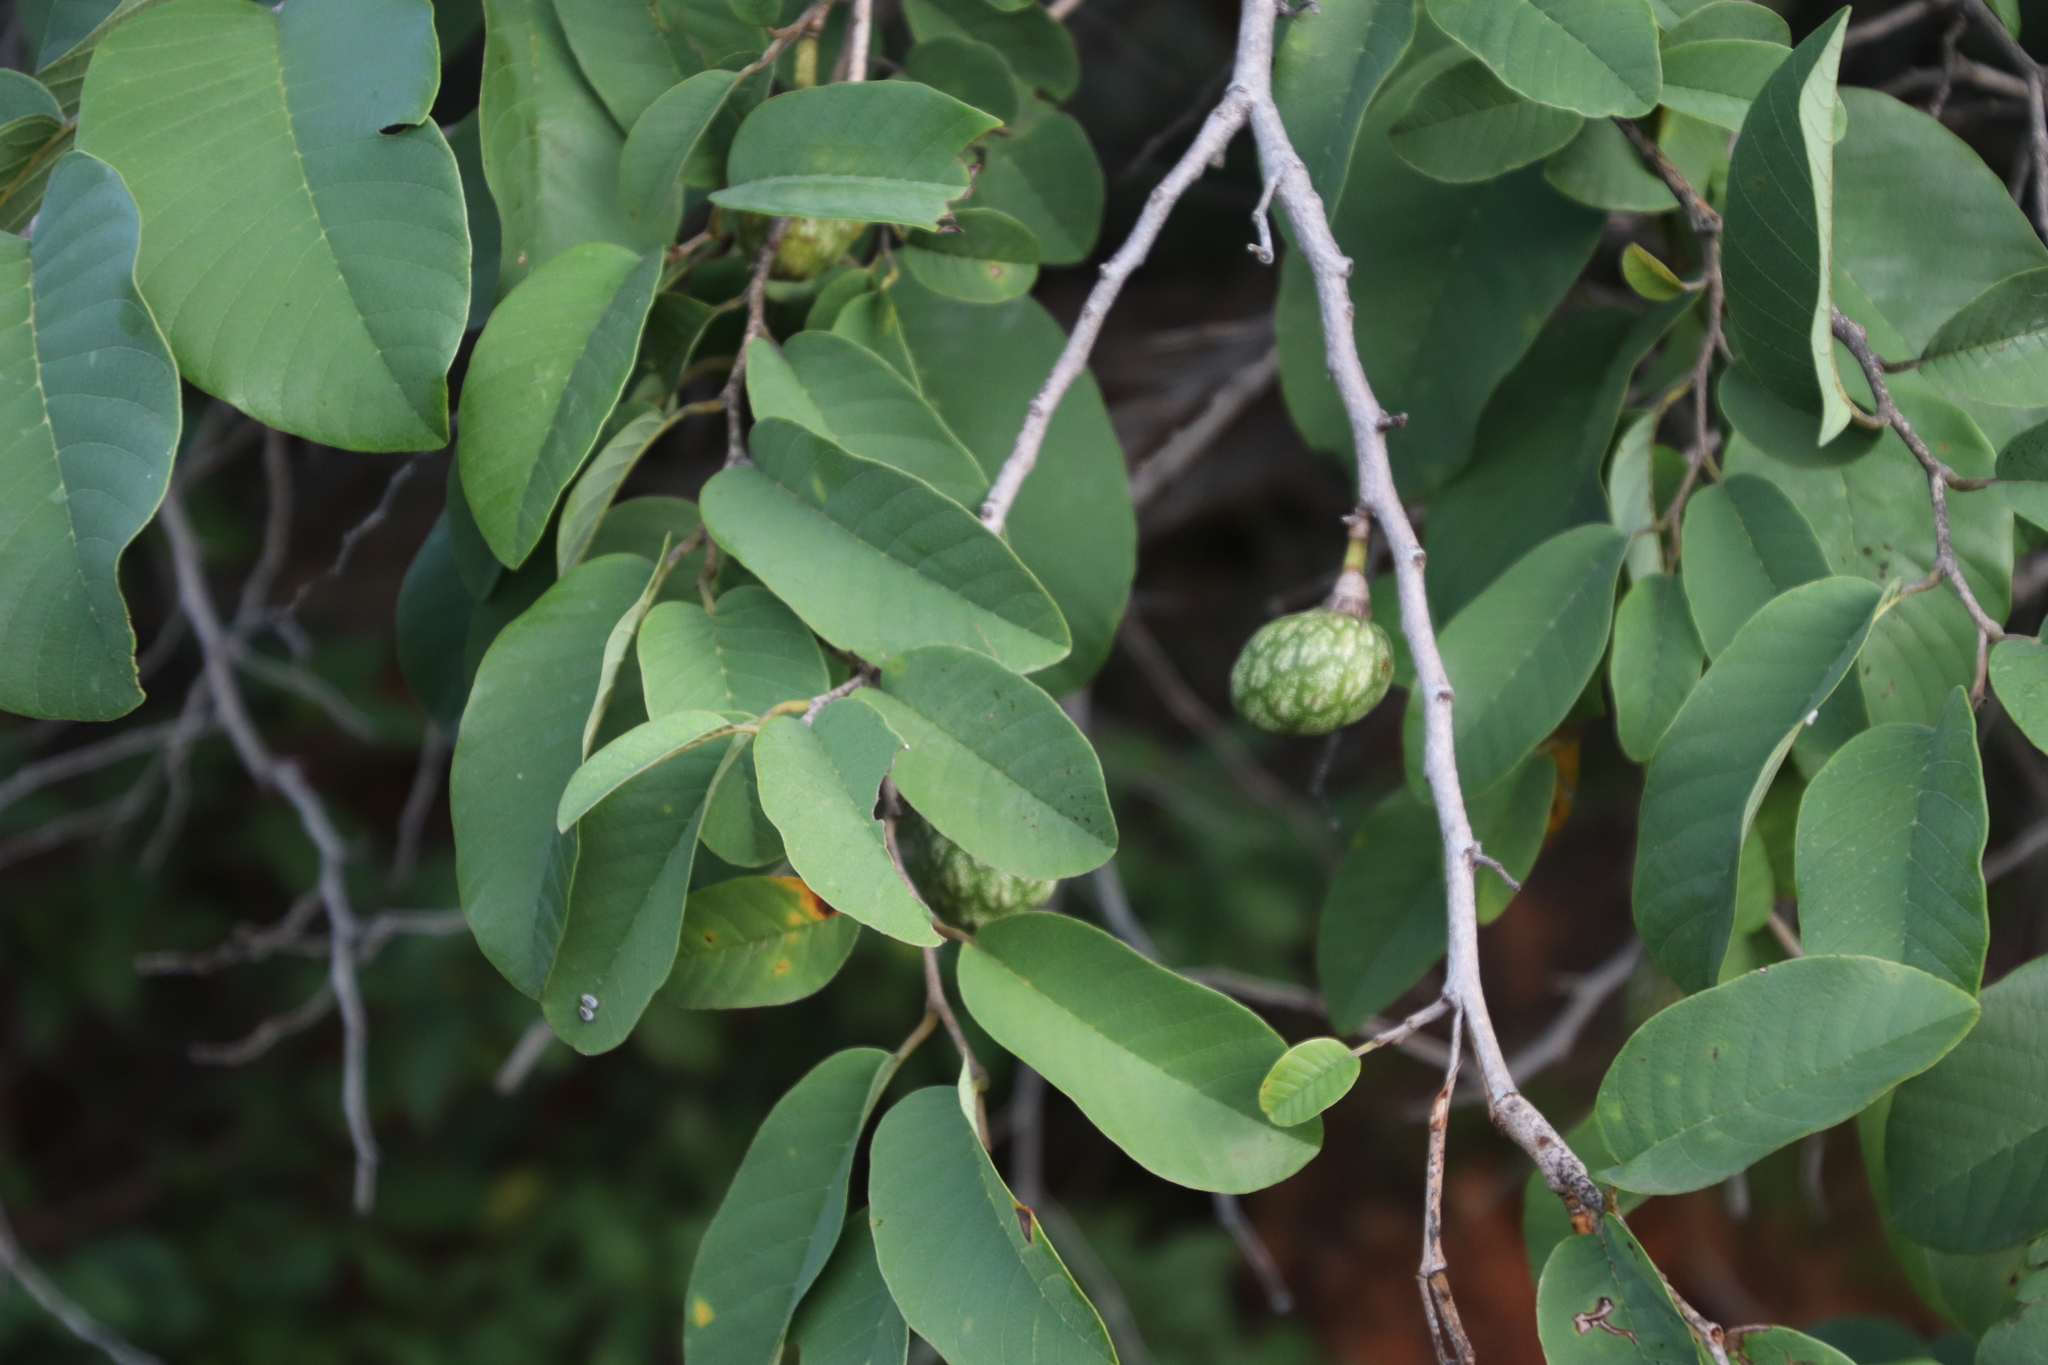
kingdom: Plantae
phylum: Tracheophyta
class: Magnoliopsida
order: Magnoliales
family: Annonaceae
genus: Annona
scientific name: Annona senegalensis
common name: Wild custard-apple
